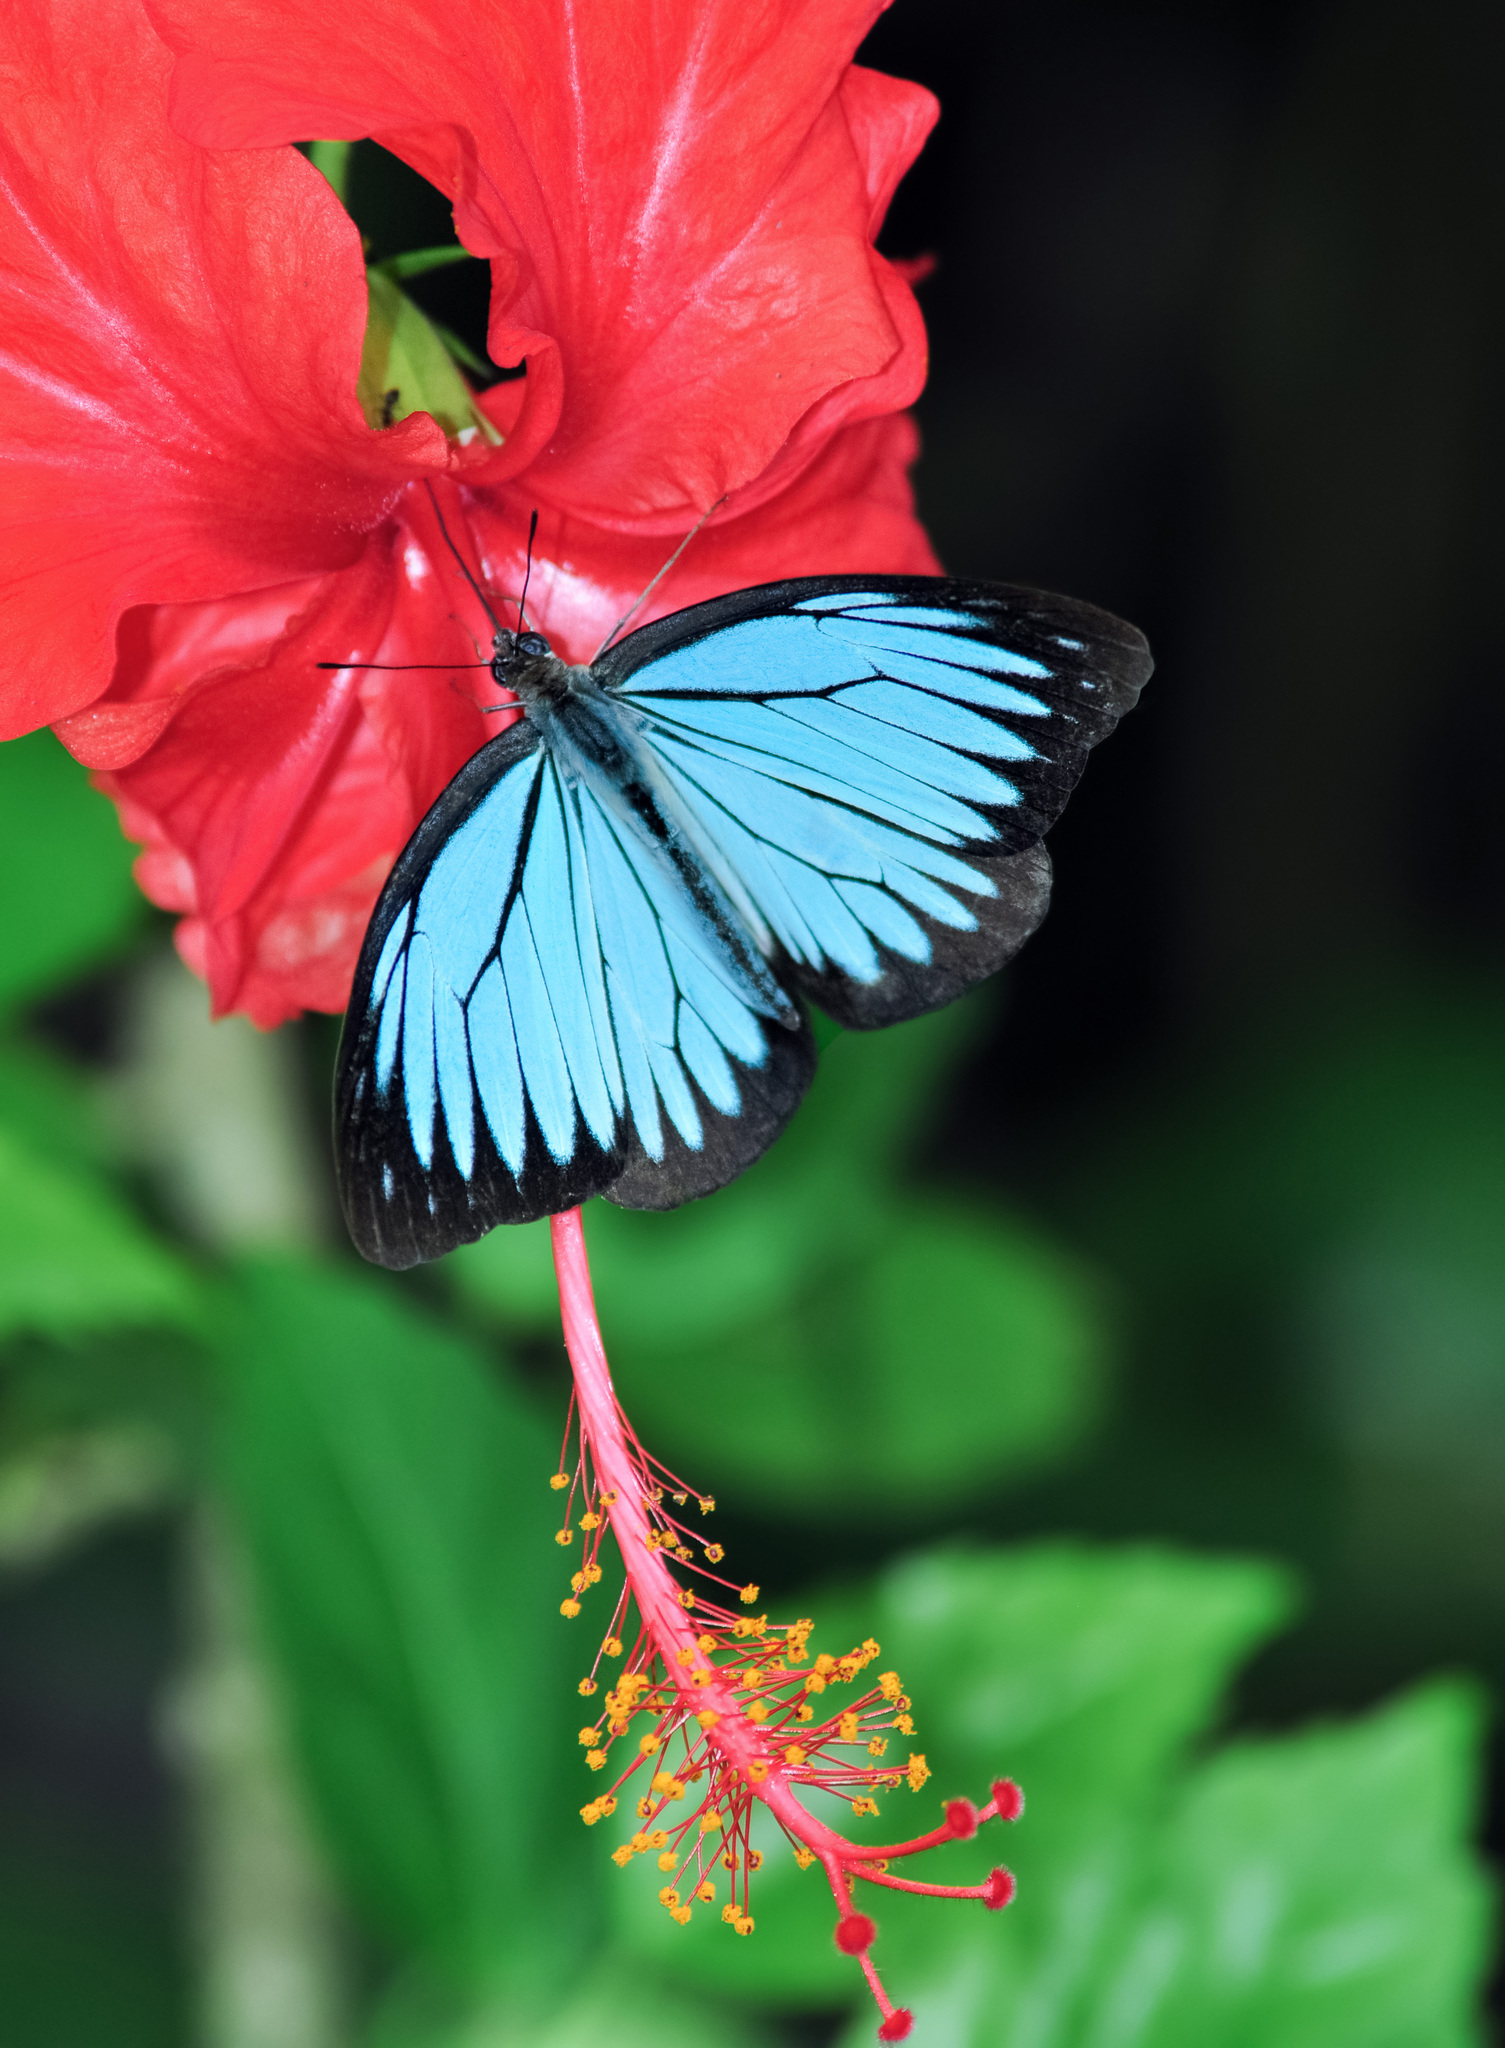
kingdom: Animalia
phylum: Arthropoda
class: Insecta
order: Lepidoptera
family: Pieridae
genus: Pareronia
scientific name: Pareronia valeria
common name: Common wanderer?
